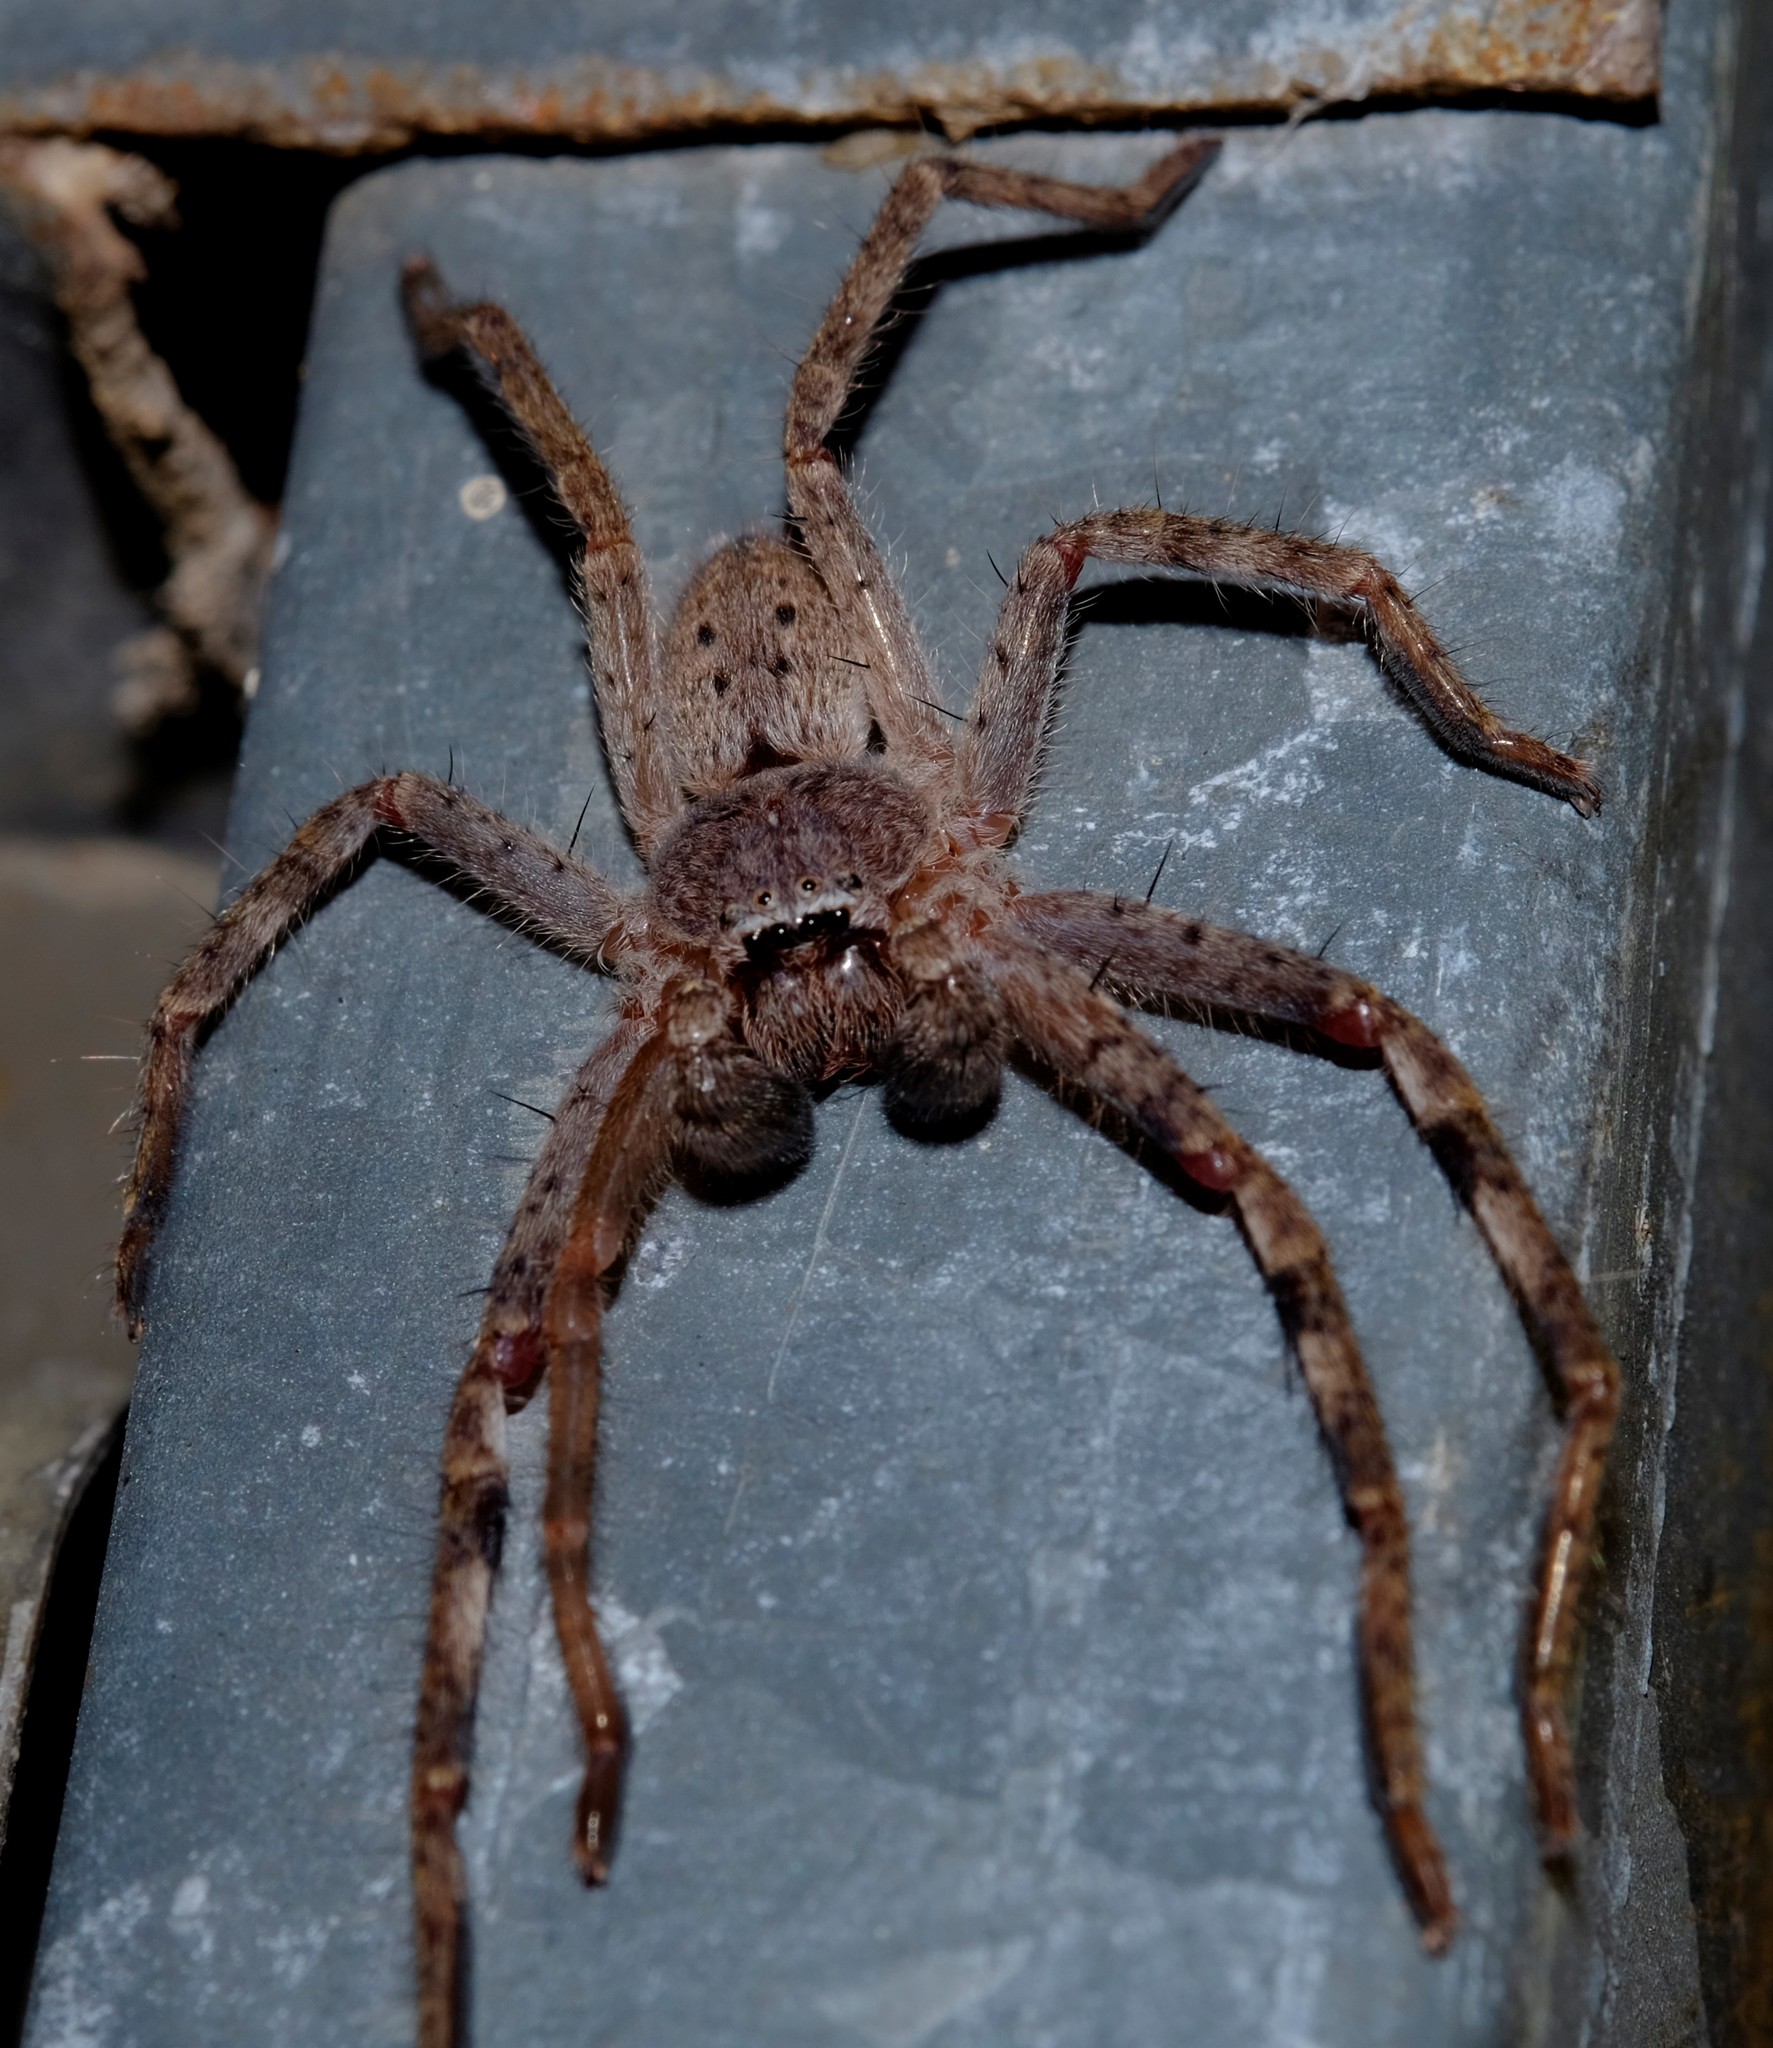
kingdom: Animalia
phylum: Arthropoda
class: Arachnida
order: Araneae
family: Sparassidae
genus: Isopeda
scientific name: Isopeda montana
